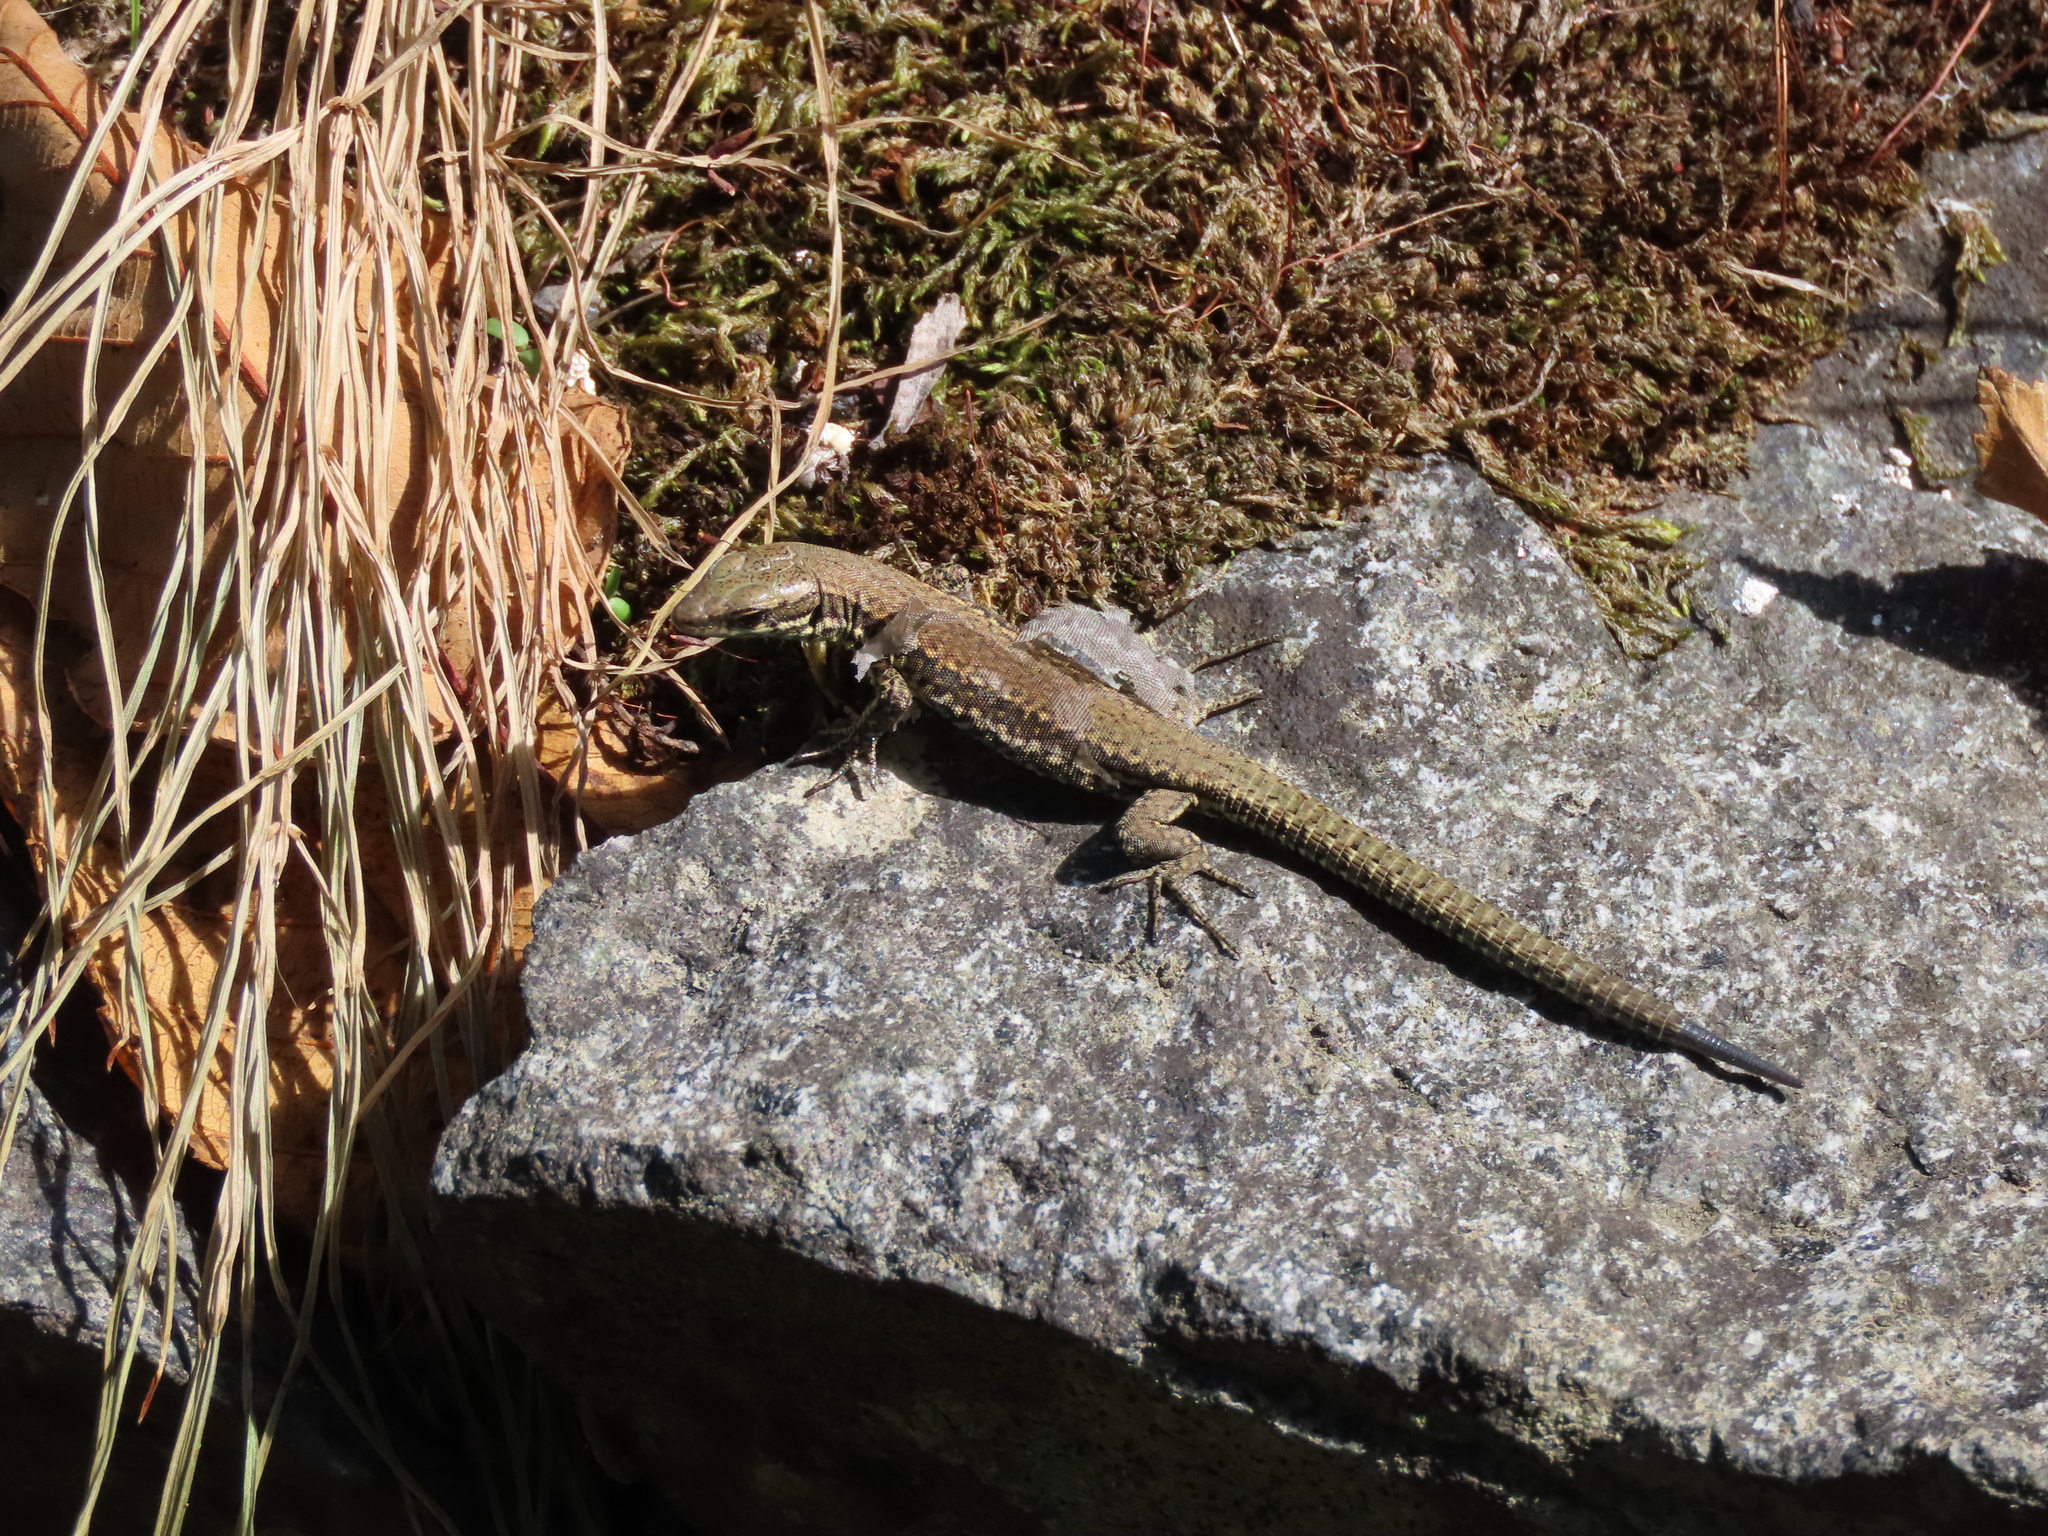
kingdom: Animalia
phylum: Chordata
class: Squamata
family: Lacertidae
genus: Podarcis
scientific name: Podarcis muralis
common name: Common wall lizard
